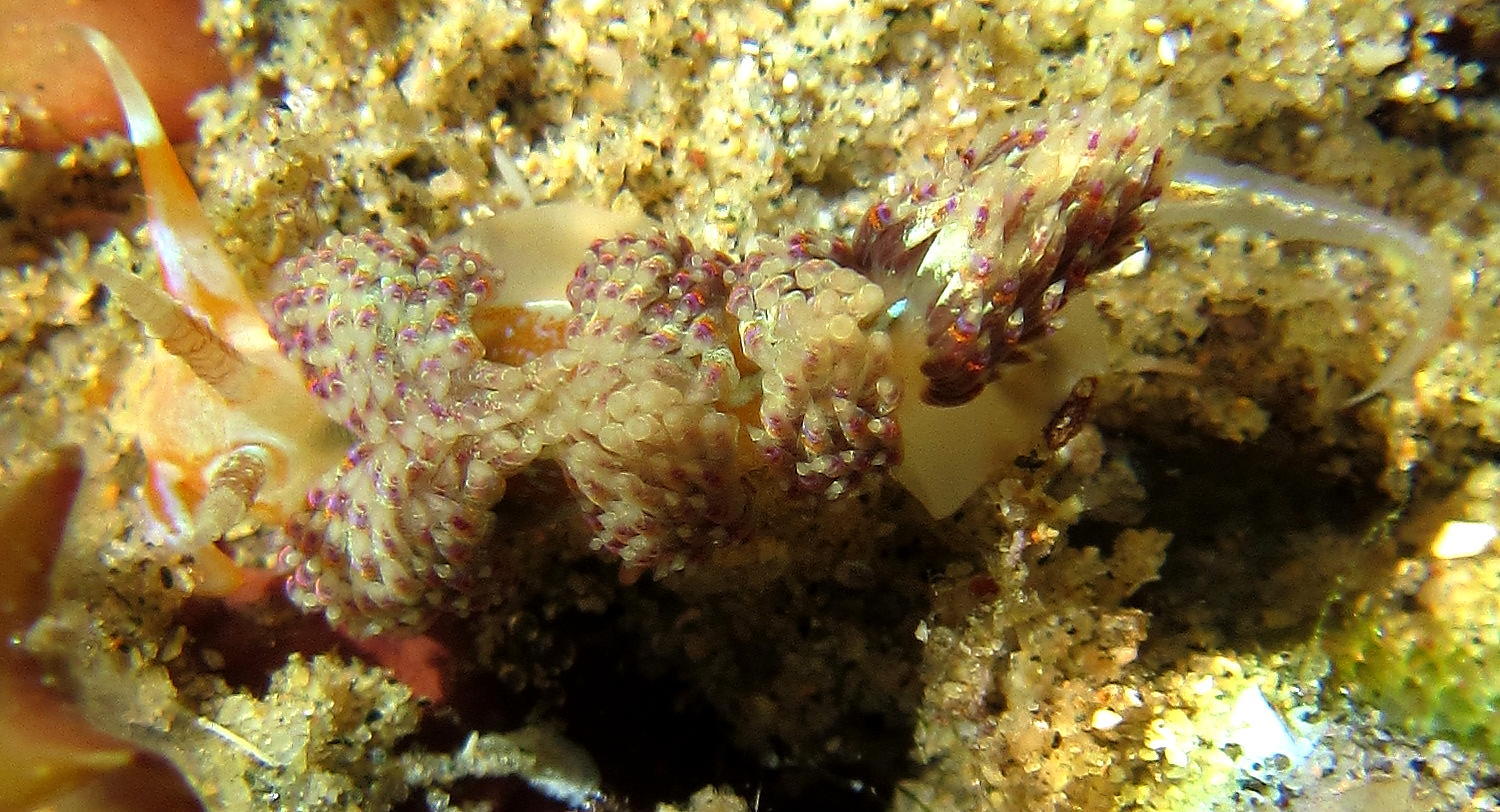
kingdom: Animalia
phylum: Mollusca
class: Gastropoda
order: Nudibranchia
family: Myrrhinidae
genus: Godiva
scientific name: Godiva quadricolor
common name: Four-colour nudibranch
